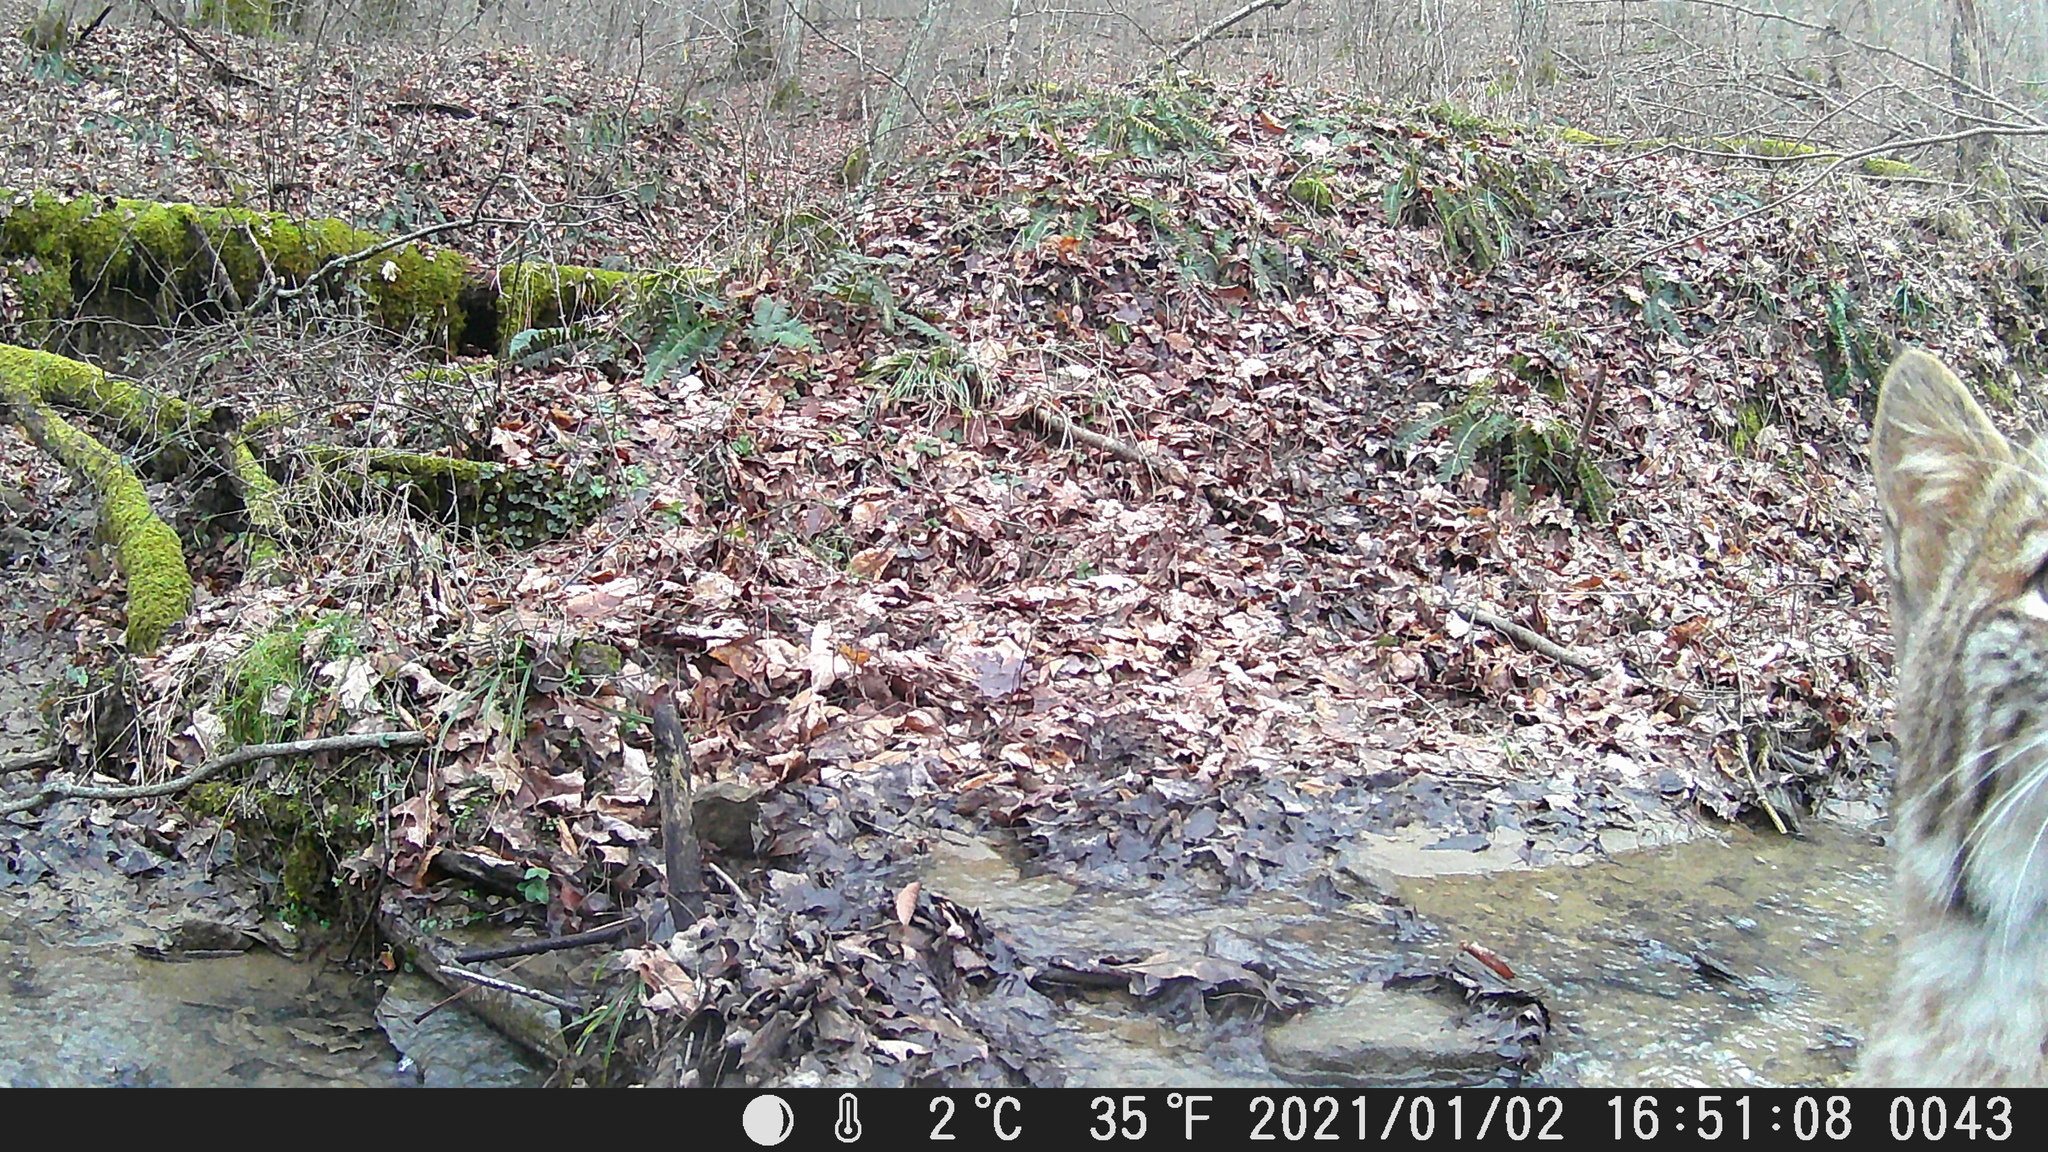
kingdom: Animalia
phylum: Chordata
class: Mammalia
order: Carnivora
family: Felidae
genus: Lynx
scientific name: Lynx rufus
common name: Bobcat
